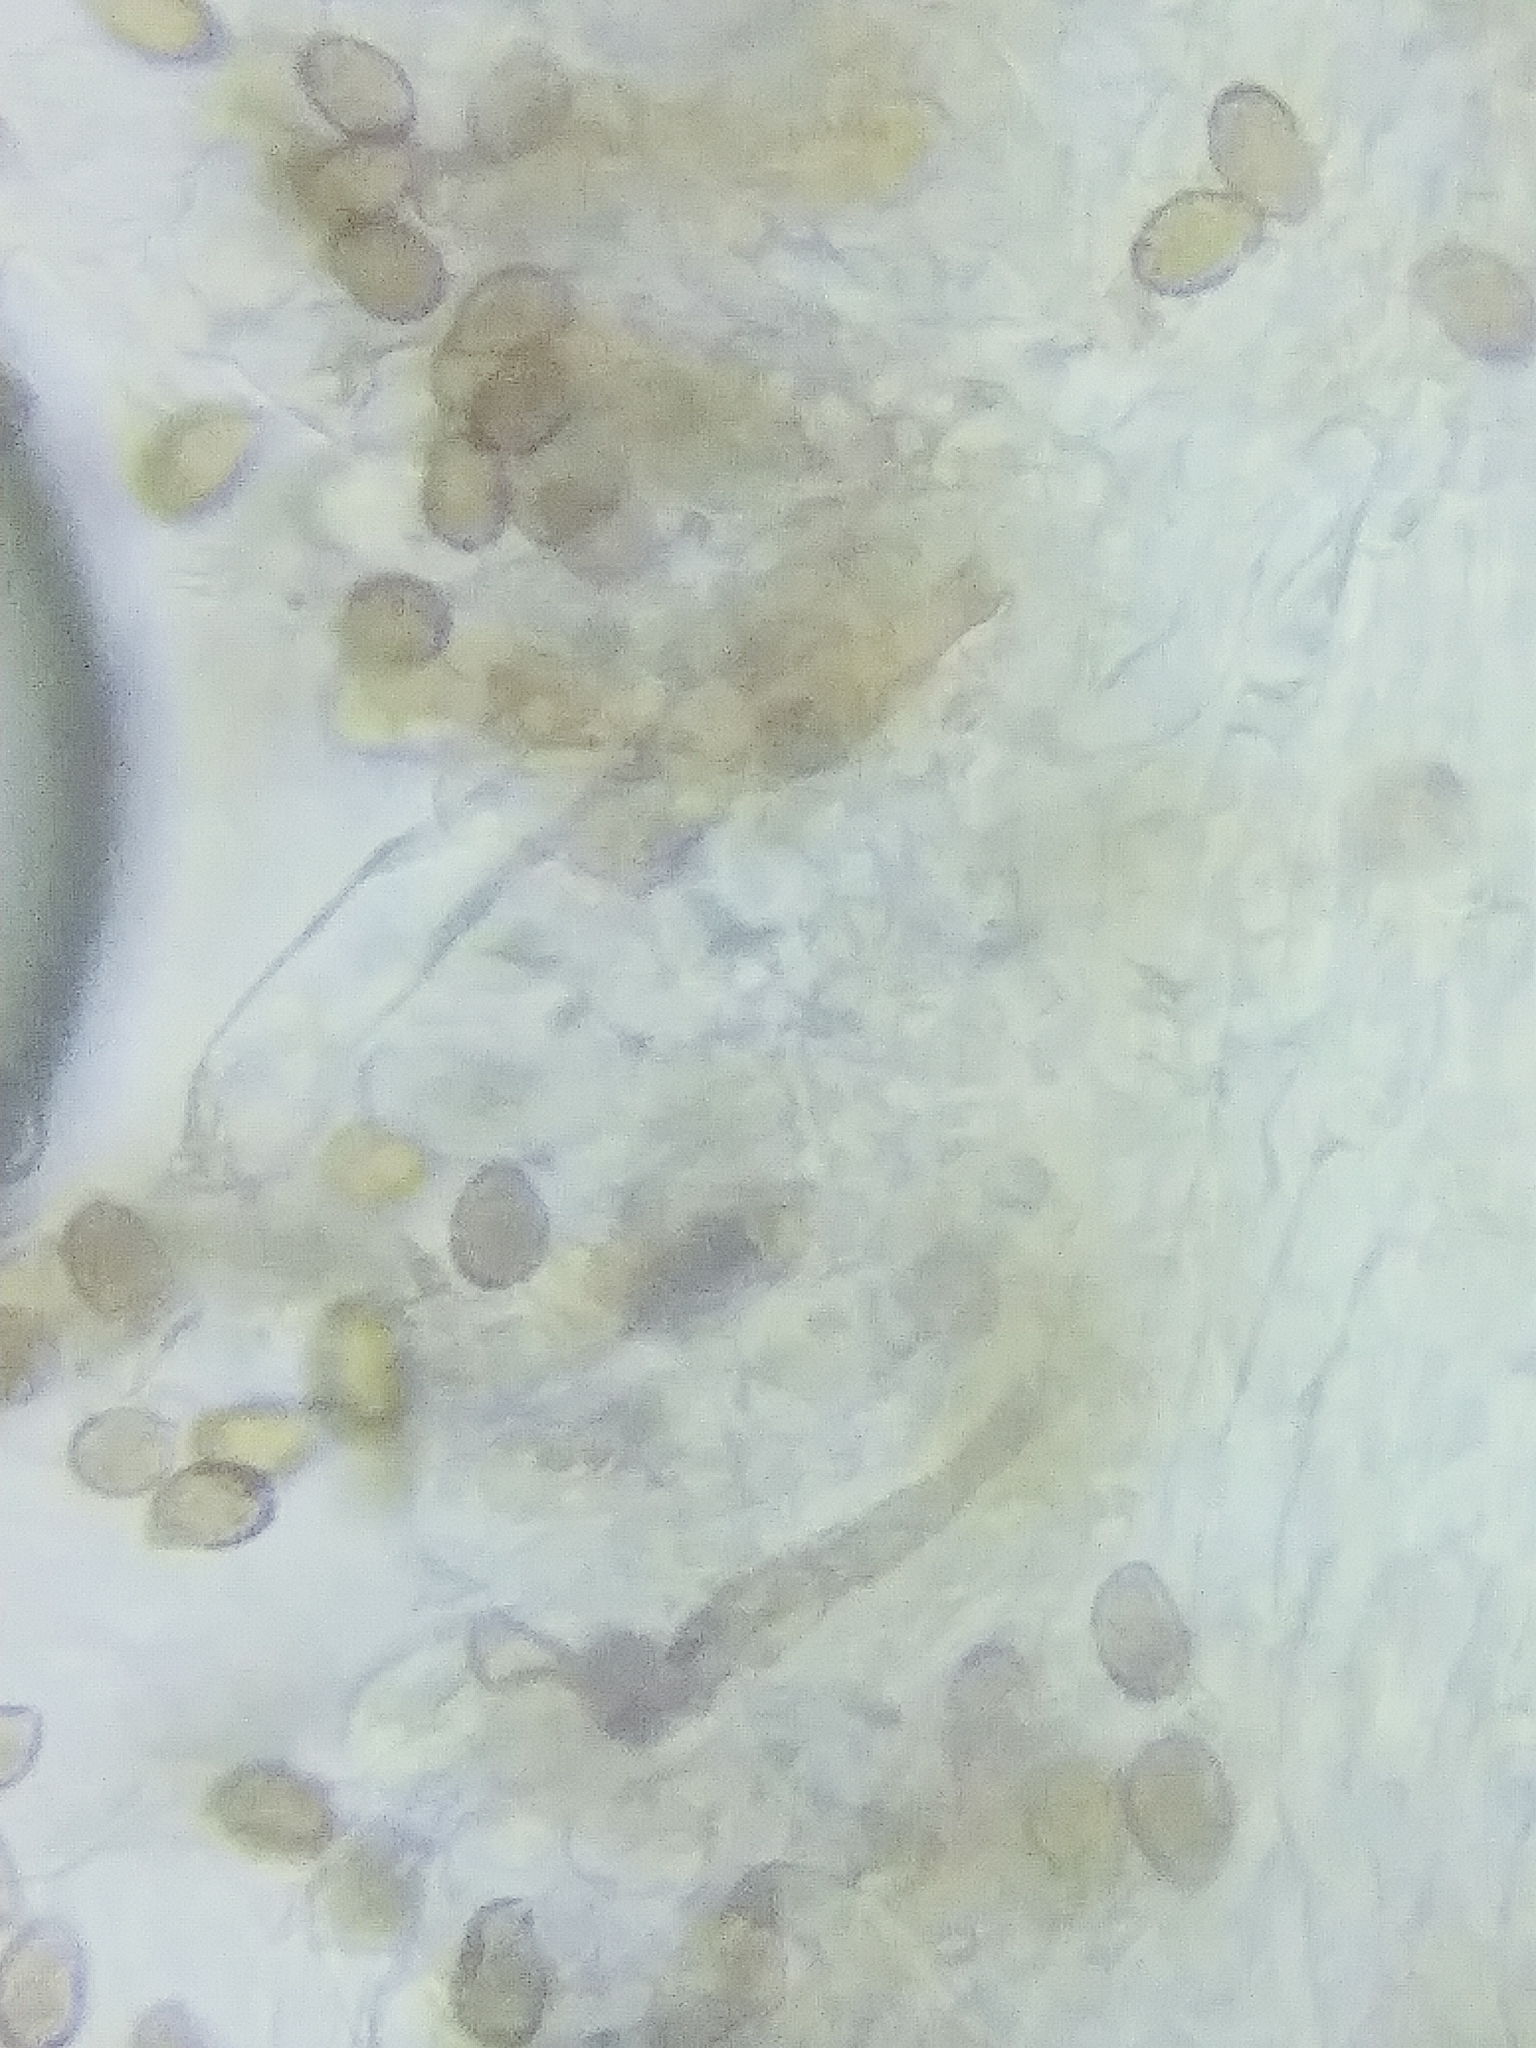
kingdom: Fungi
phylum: Basidiomycota
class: Agaricomycetes
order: Agaricales
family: Cortinariaceae
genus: Cortinarius
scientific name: Cortinarius odoritraganus
